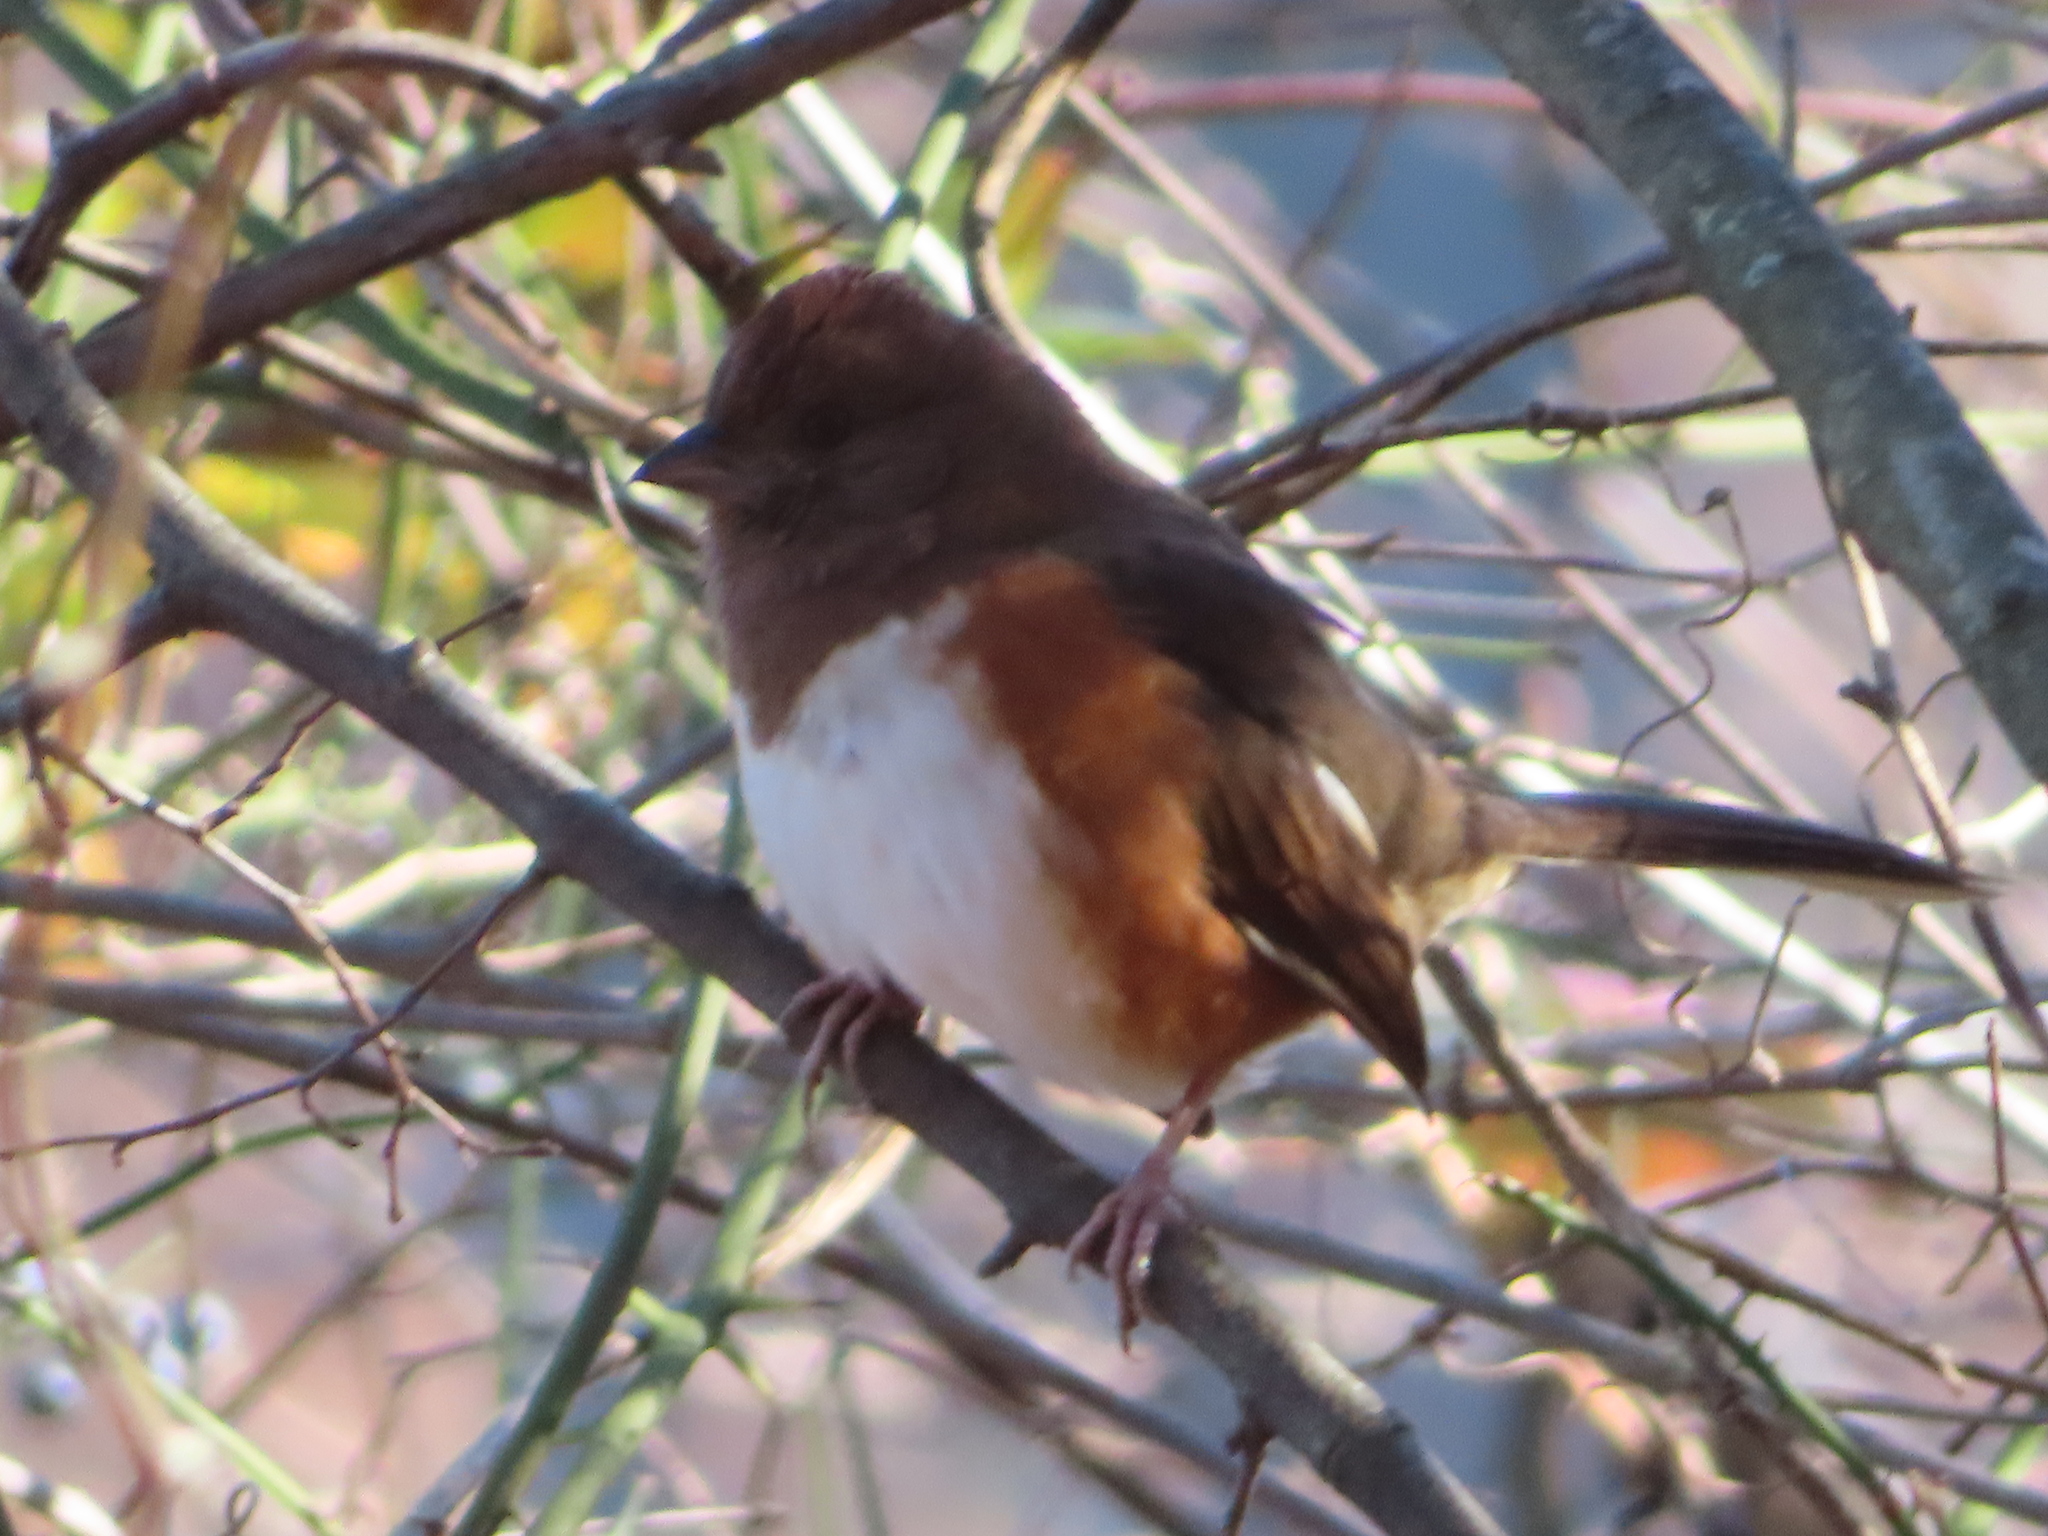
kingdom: Animalia
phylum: Chordata
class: Aves
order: Passeriformes
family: Passerellidae
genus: Pipilo
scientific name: Pipilo erythrophthalmus
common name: Eastern towhee
